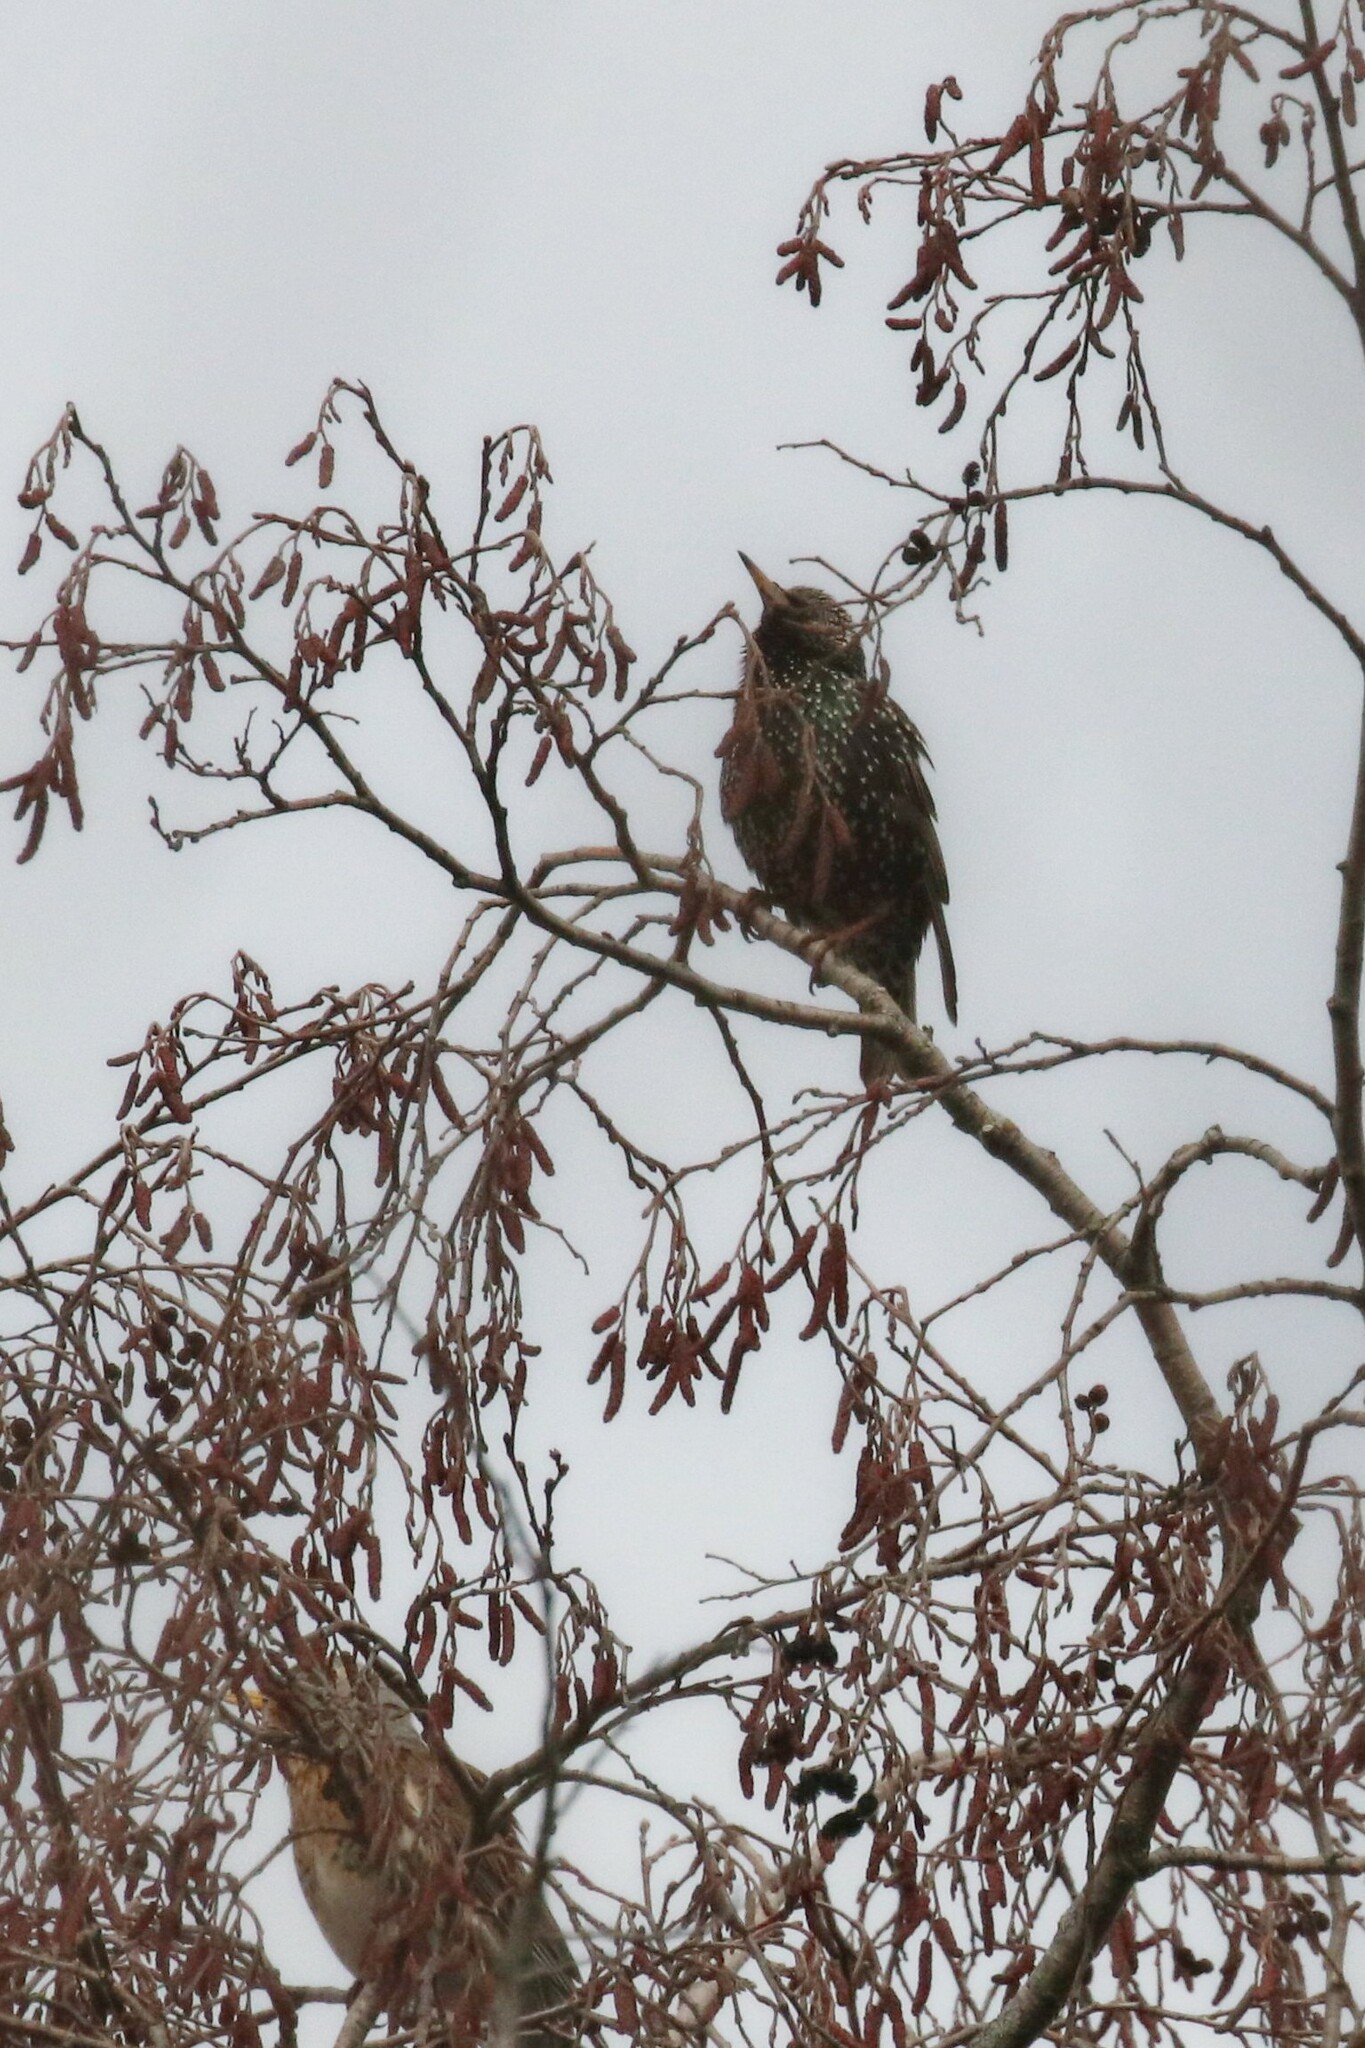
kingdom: Animalia
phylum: Chordata
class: Aves
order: Passeriformes
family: Sturnidae
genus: Sturnus
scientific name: Sturnus vulgaris
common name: Common starling
